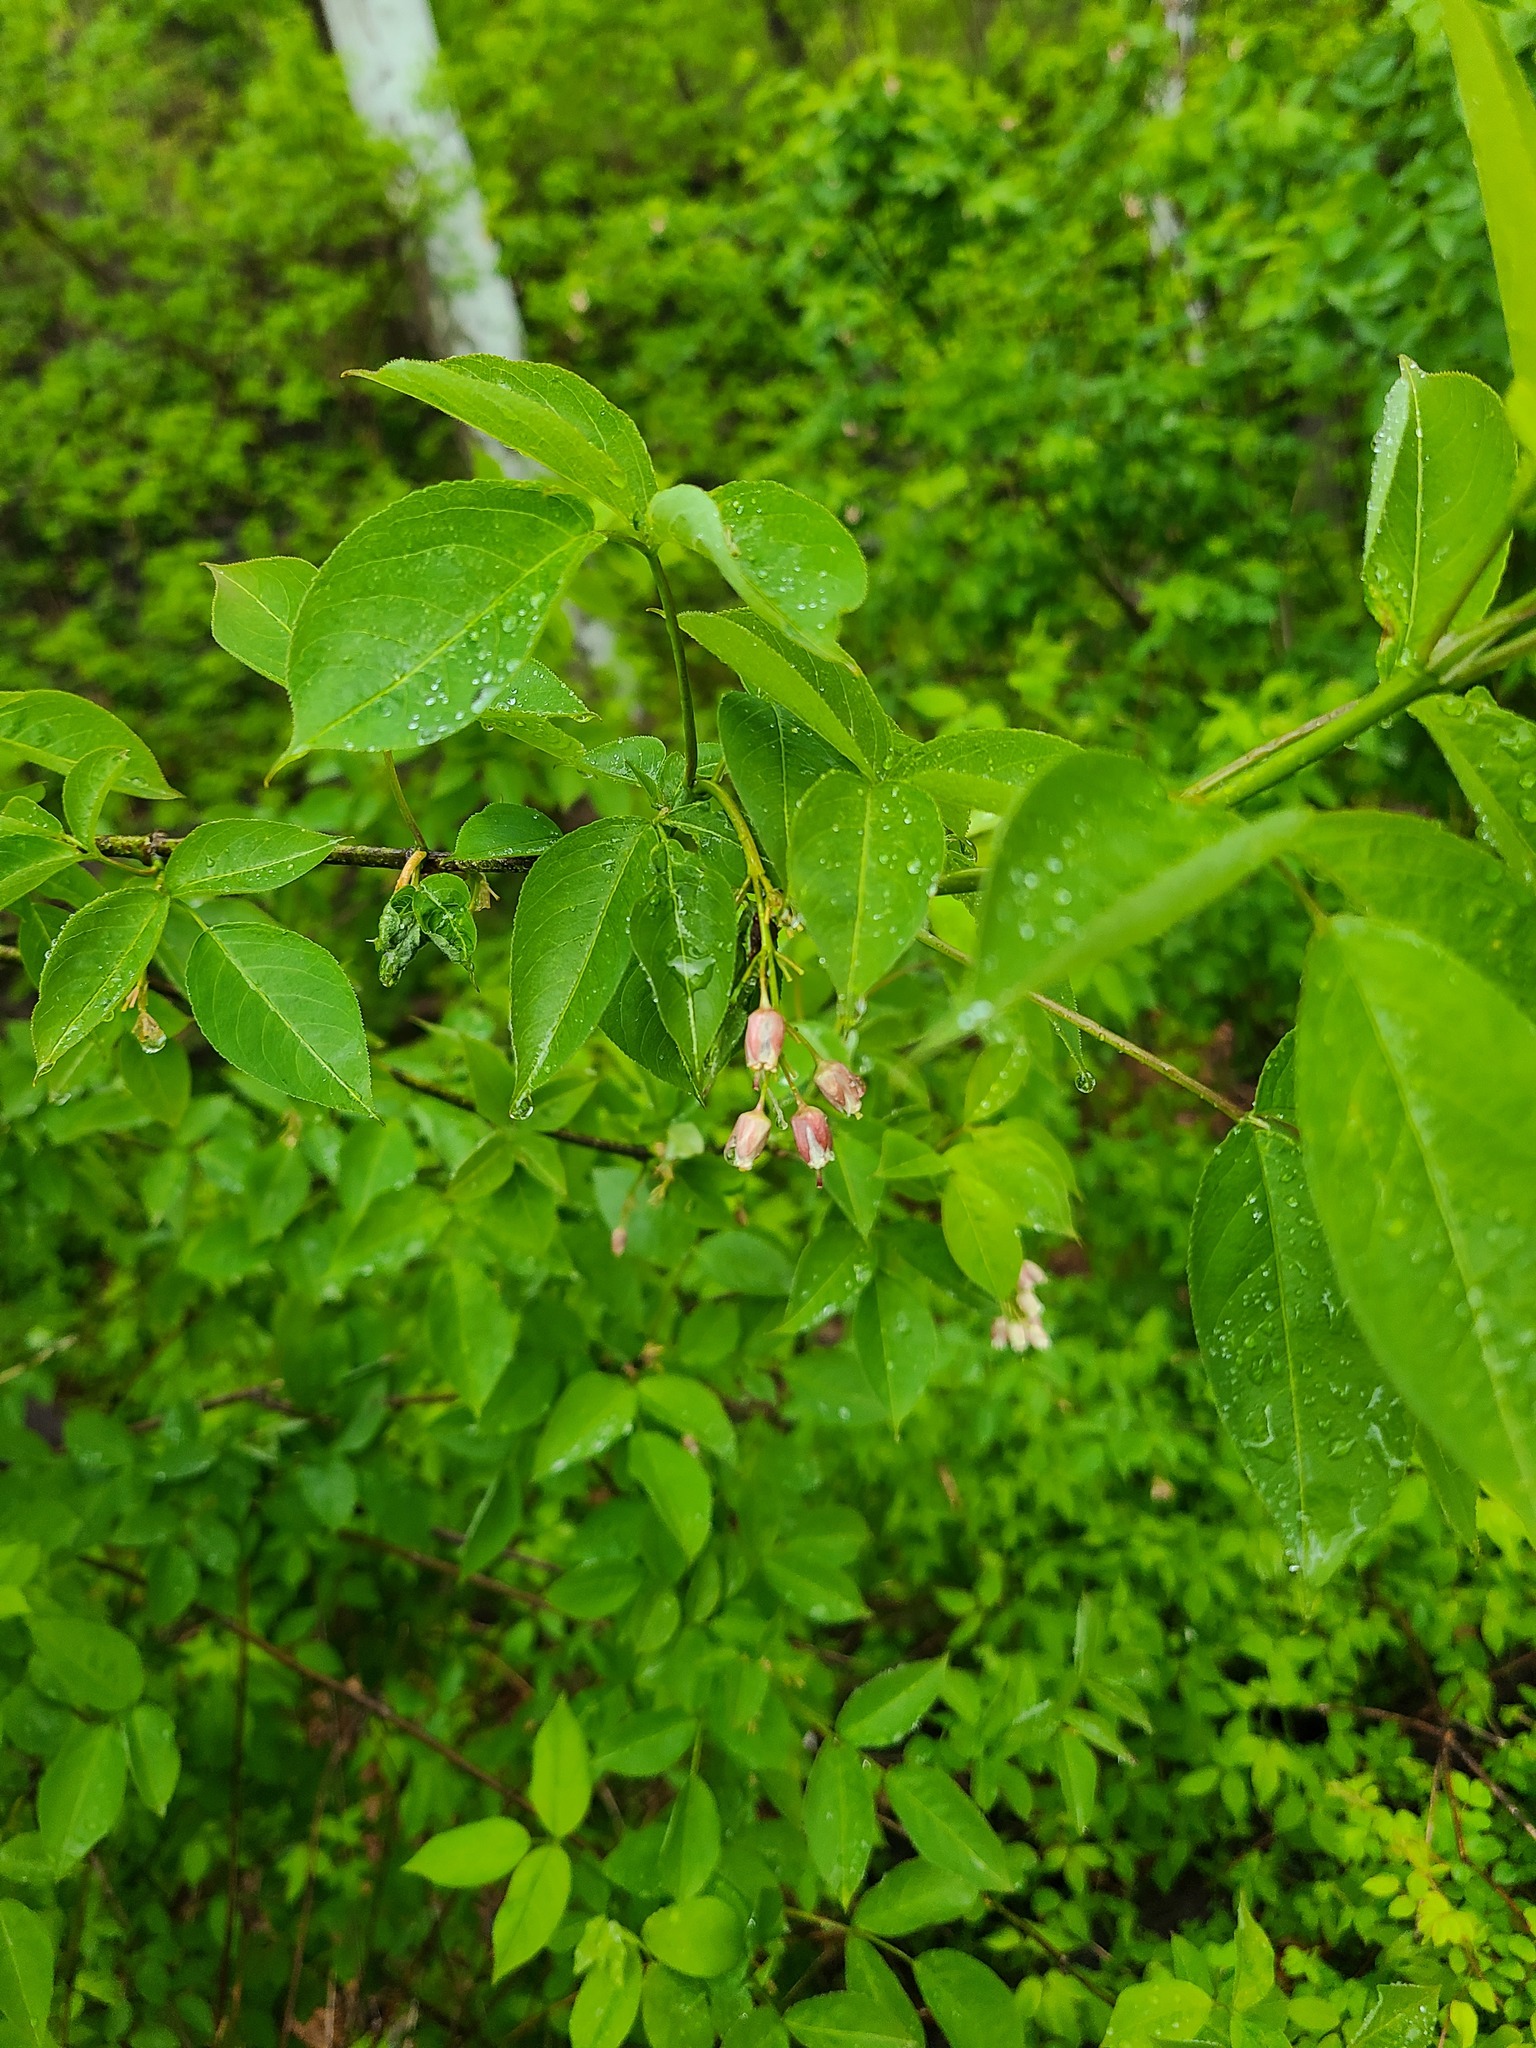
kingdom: Plantae
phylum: Tracheophyta
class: Magnoliopsida
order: Crossosomatales
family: Staphyleaceae
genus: Staphylea
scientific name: Staphylea trifolia
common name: American bladdernut
